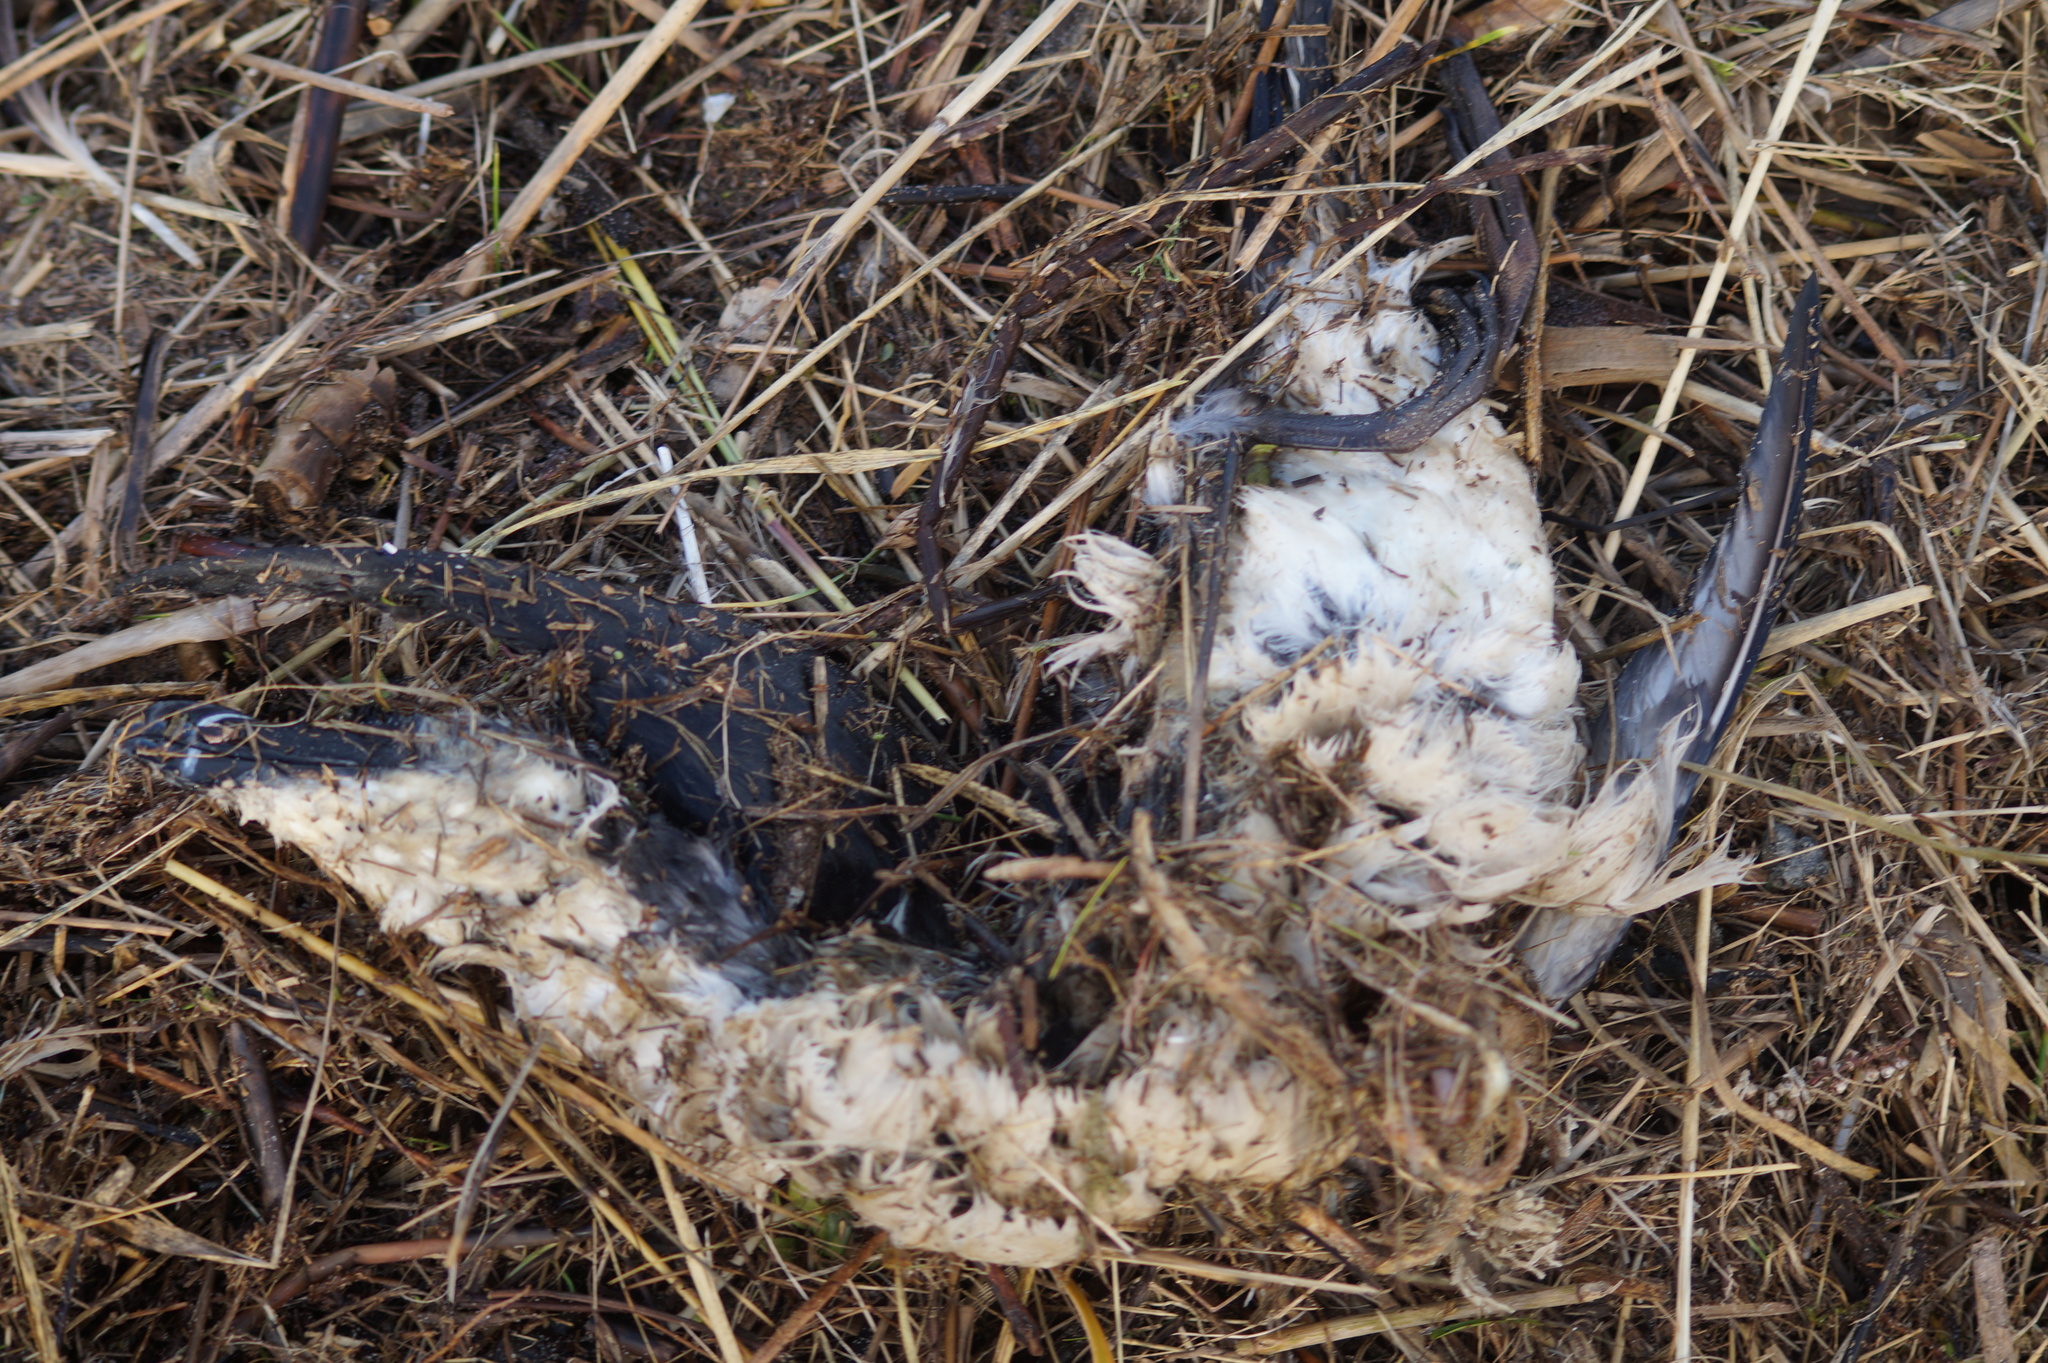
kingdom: Animalia
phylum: Chordata
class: Aves
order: Charadriiformes
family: Alcidae
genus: Alca
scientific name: Alca torda
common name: Razorbill
